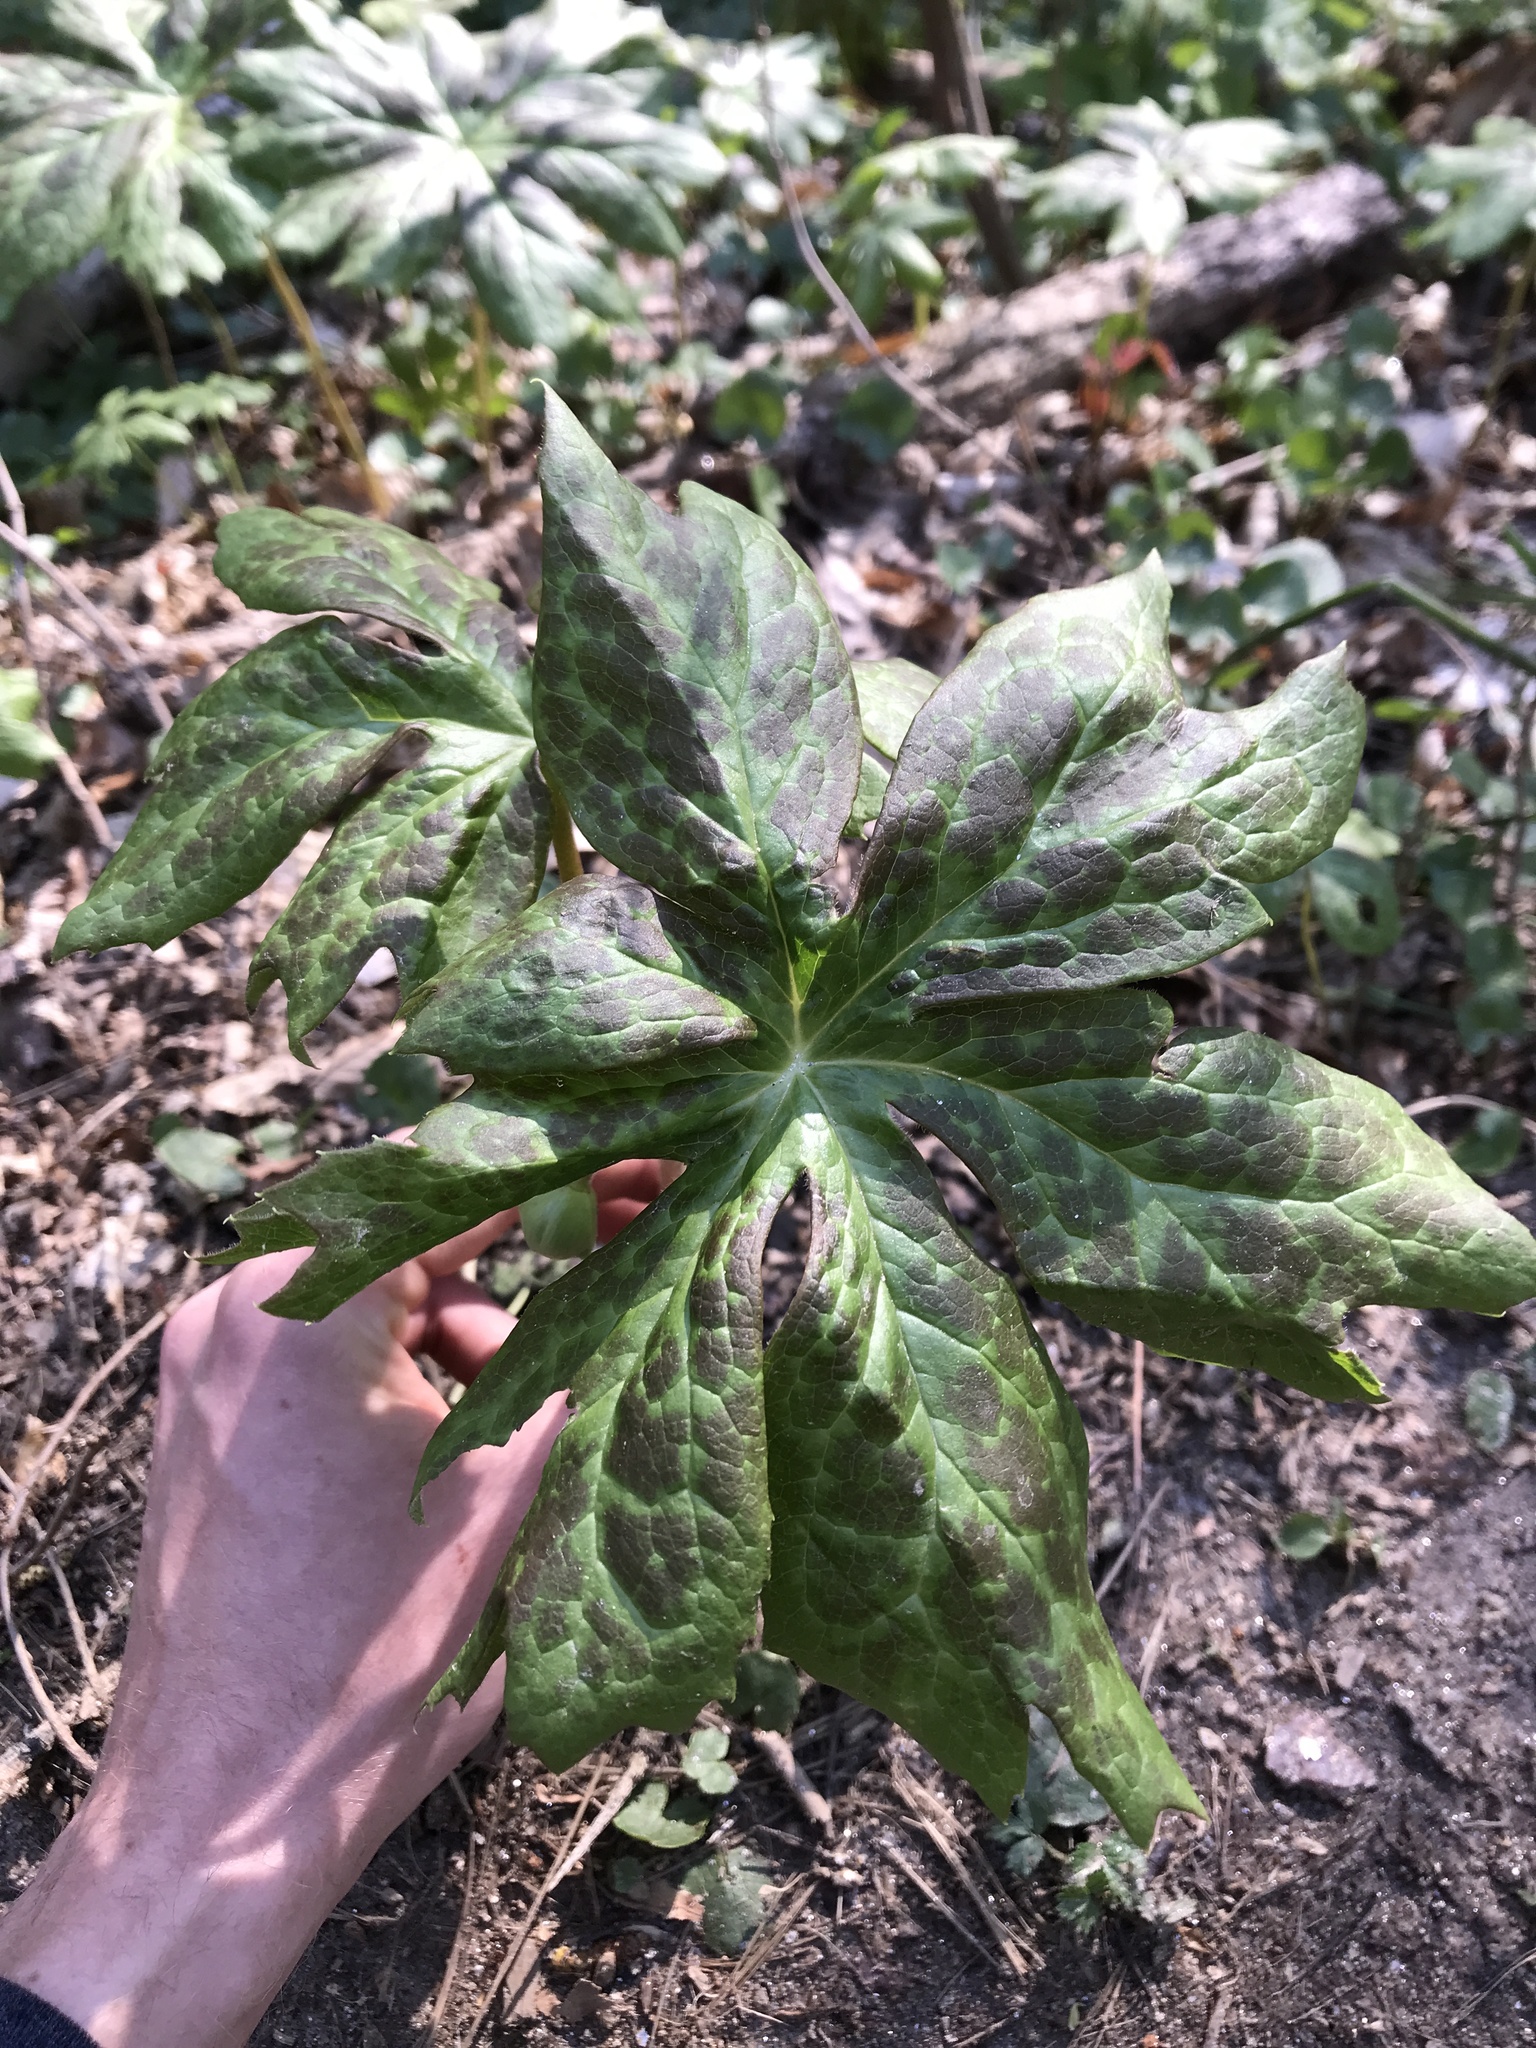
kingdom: Plantae
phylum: Tracheophyta
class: Magnoliopsida
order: Ranunculales
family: Berberidaceae
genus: Podophyllum
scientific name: Podophyllum peltatum
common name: Wild mandrake
